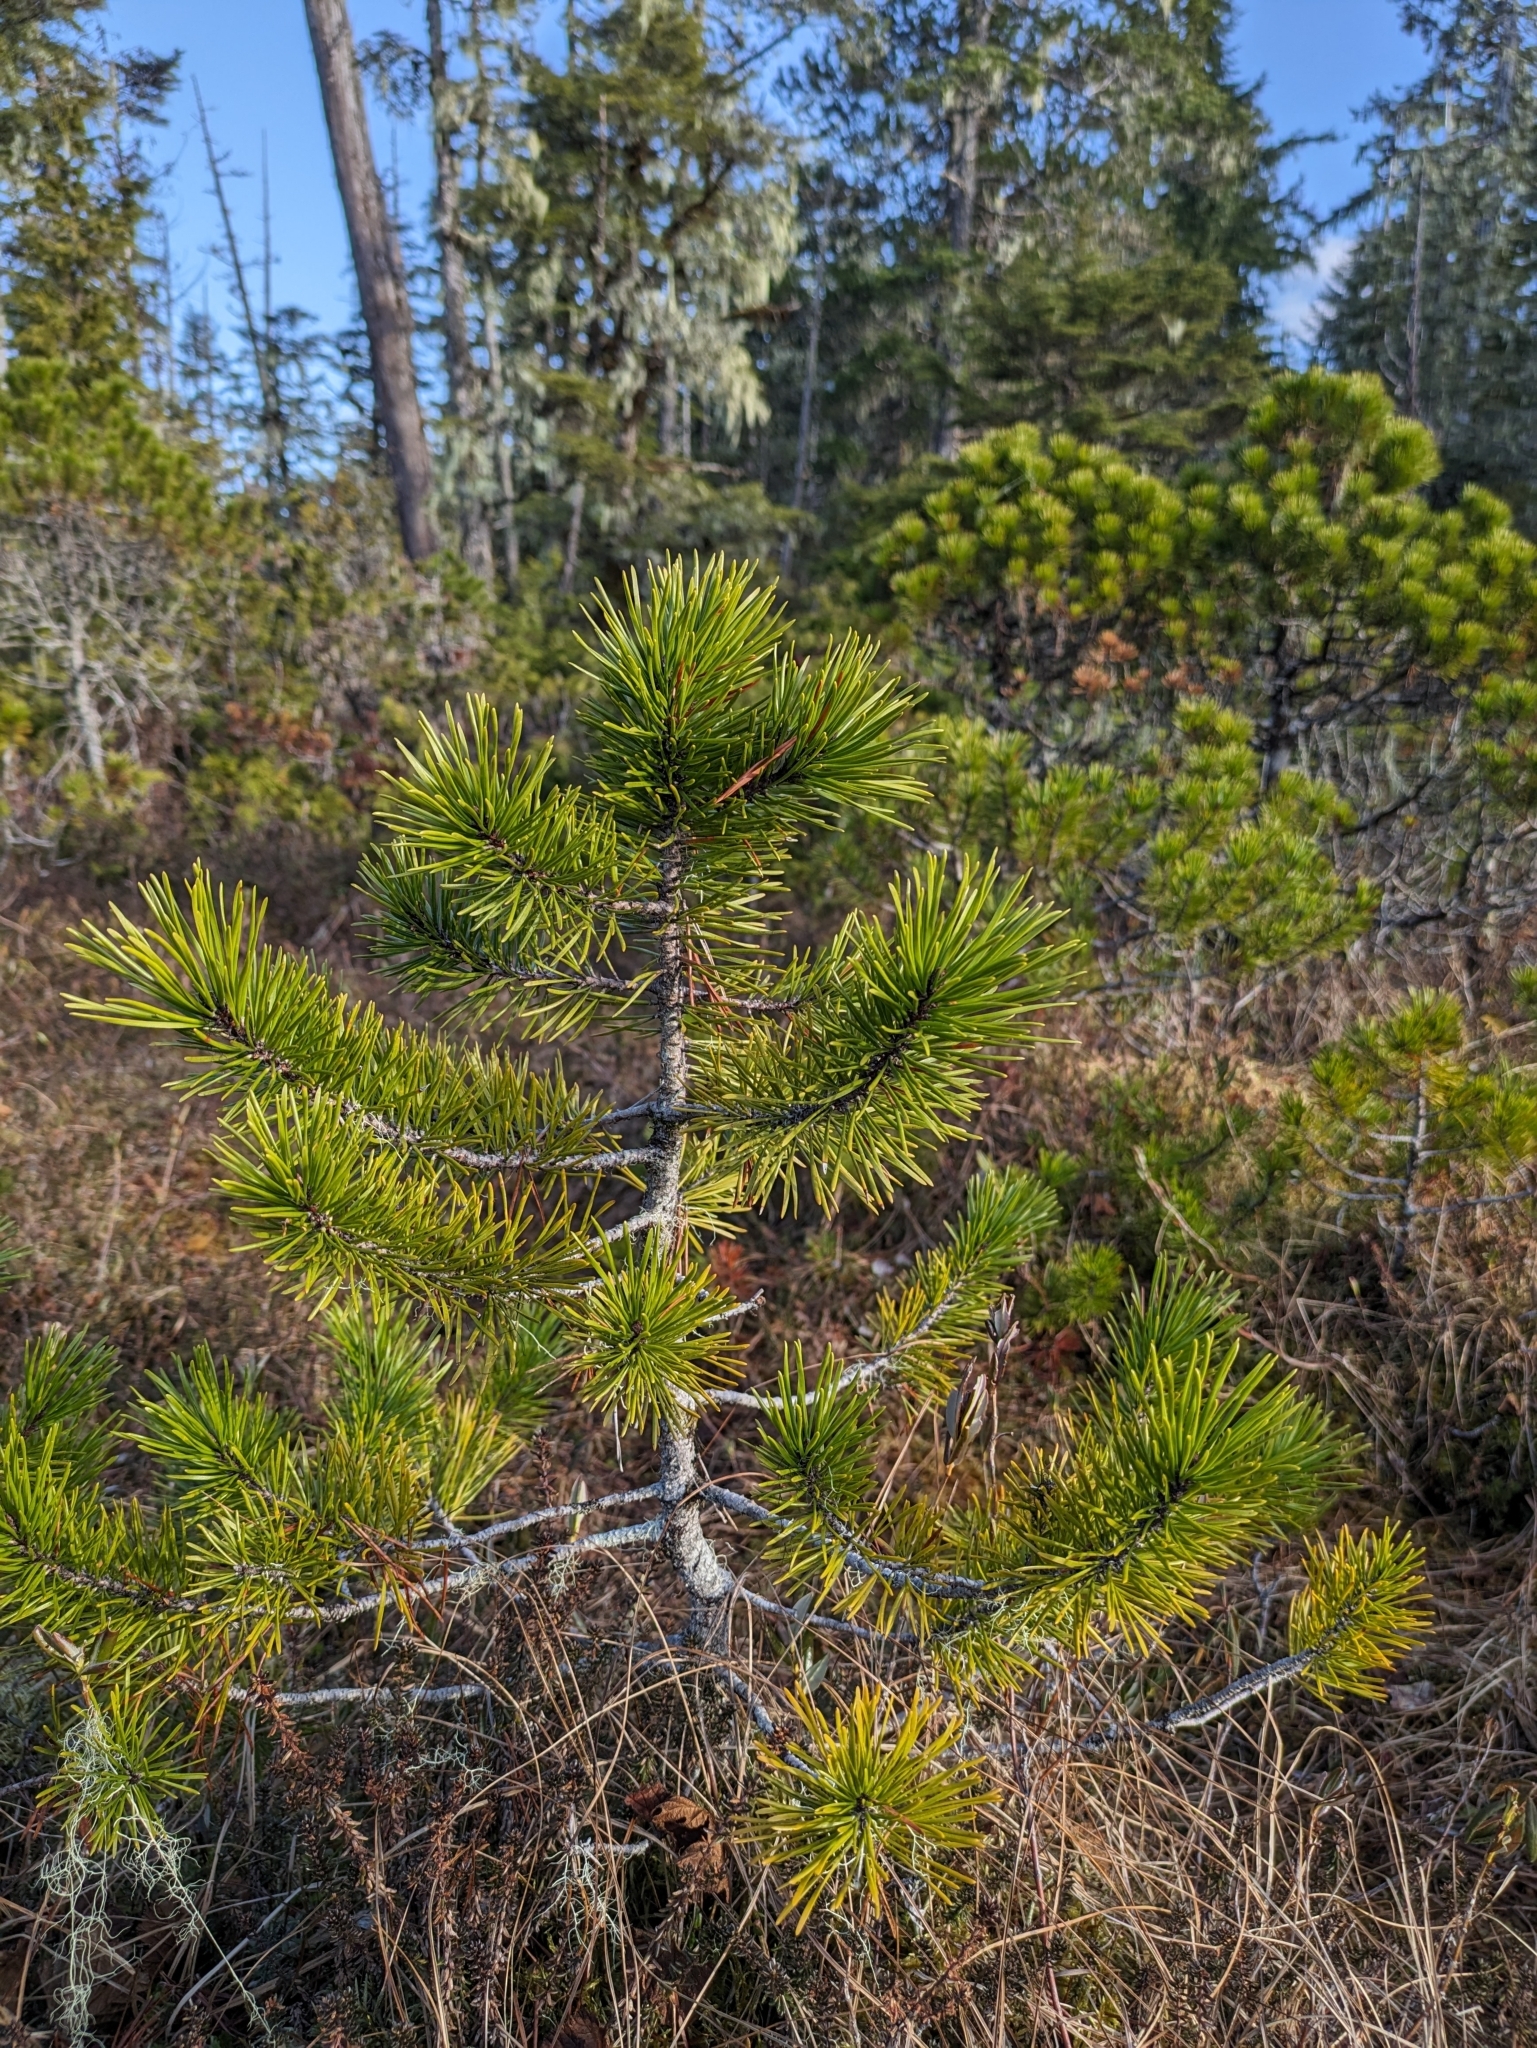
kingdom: Plantae
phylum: Tracheophyta
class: Pinopsida
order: Pinales
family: Pinaceae
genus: Pinus
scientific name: Pinus contorta
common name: Lodgepole pine
